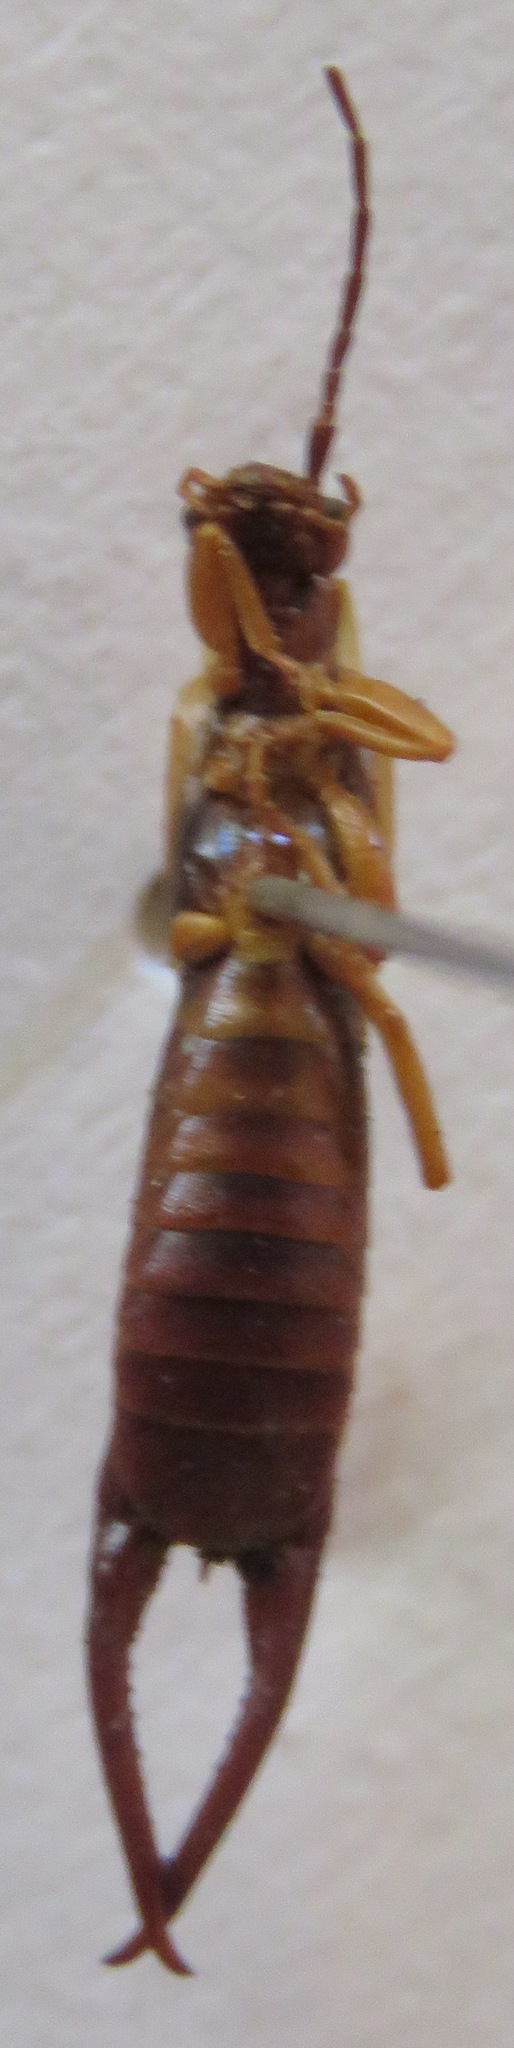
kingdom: Animalia
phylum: Arthropoda
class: Insecta
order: Dermaptera
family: Forficulidae
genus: Doru
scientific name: Doru taeniatum
